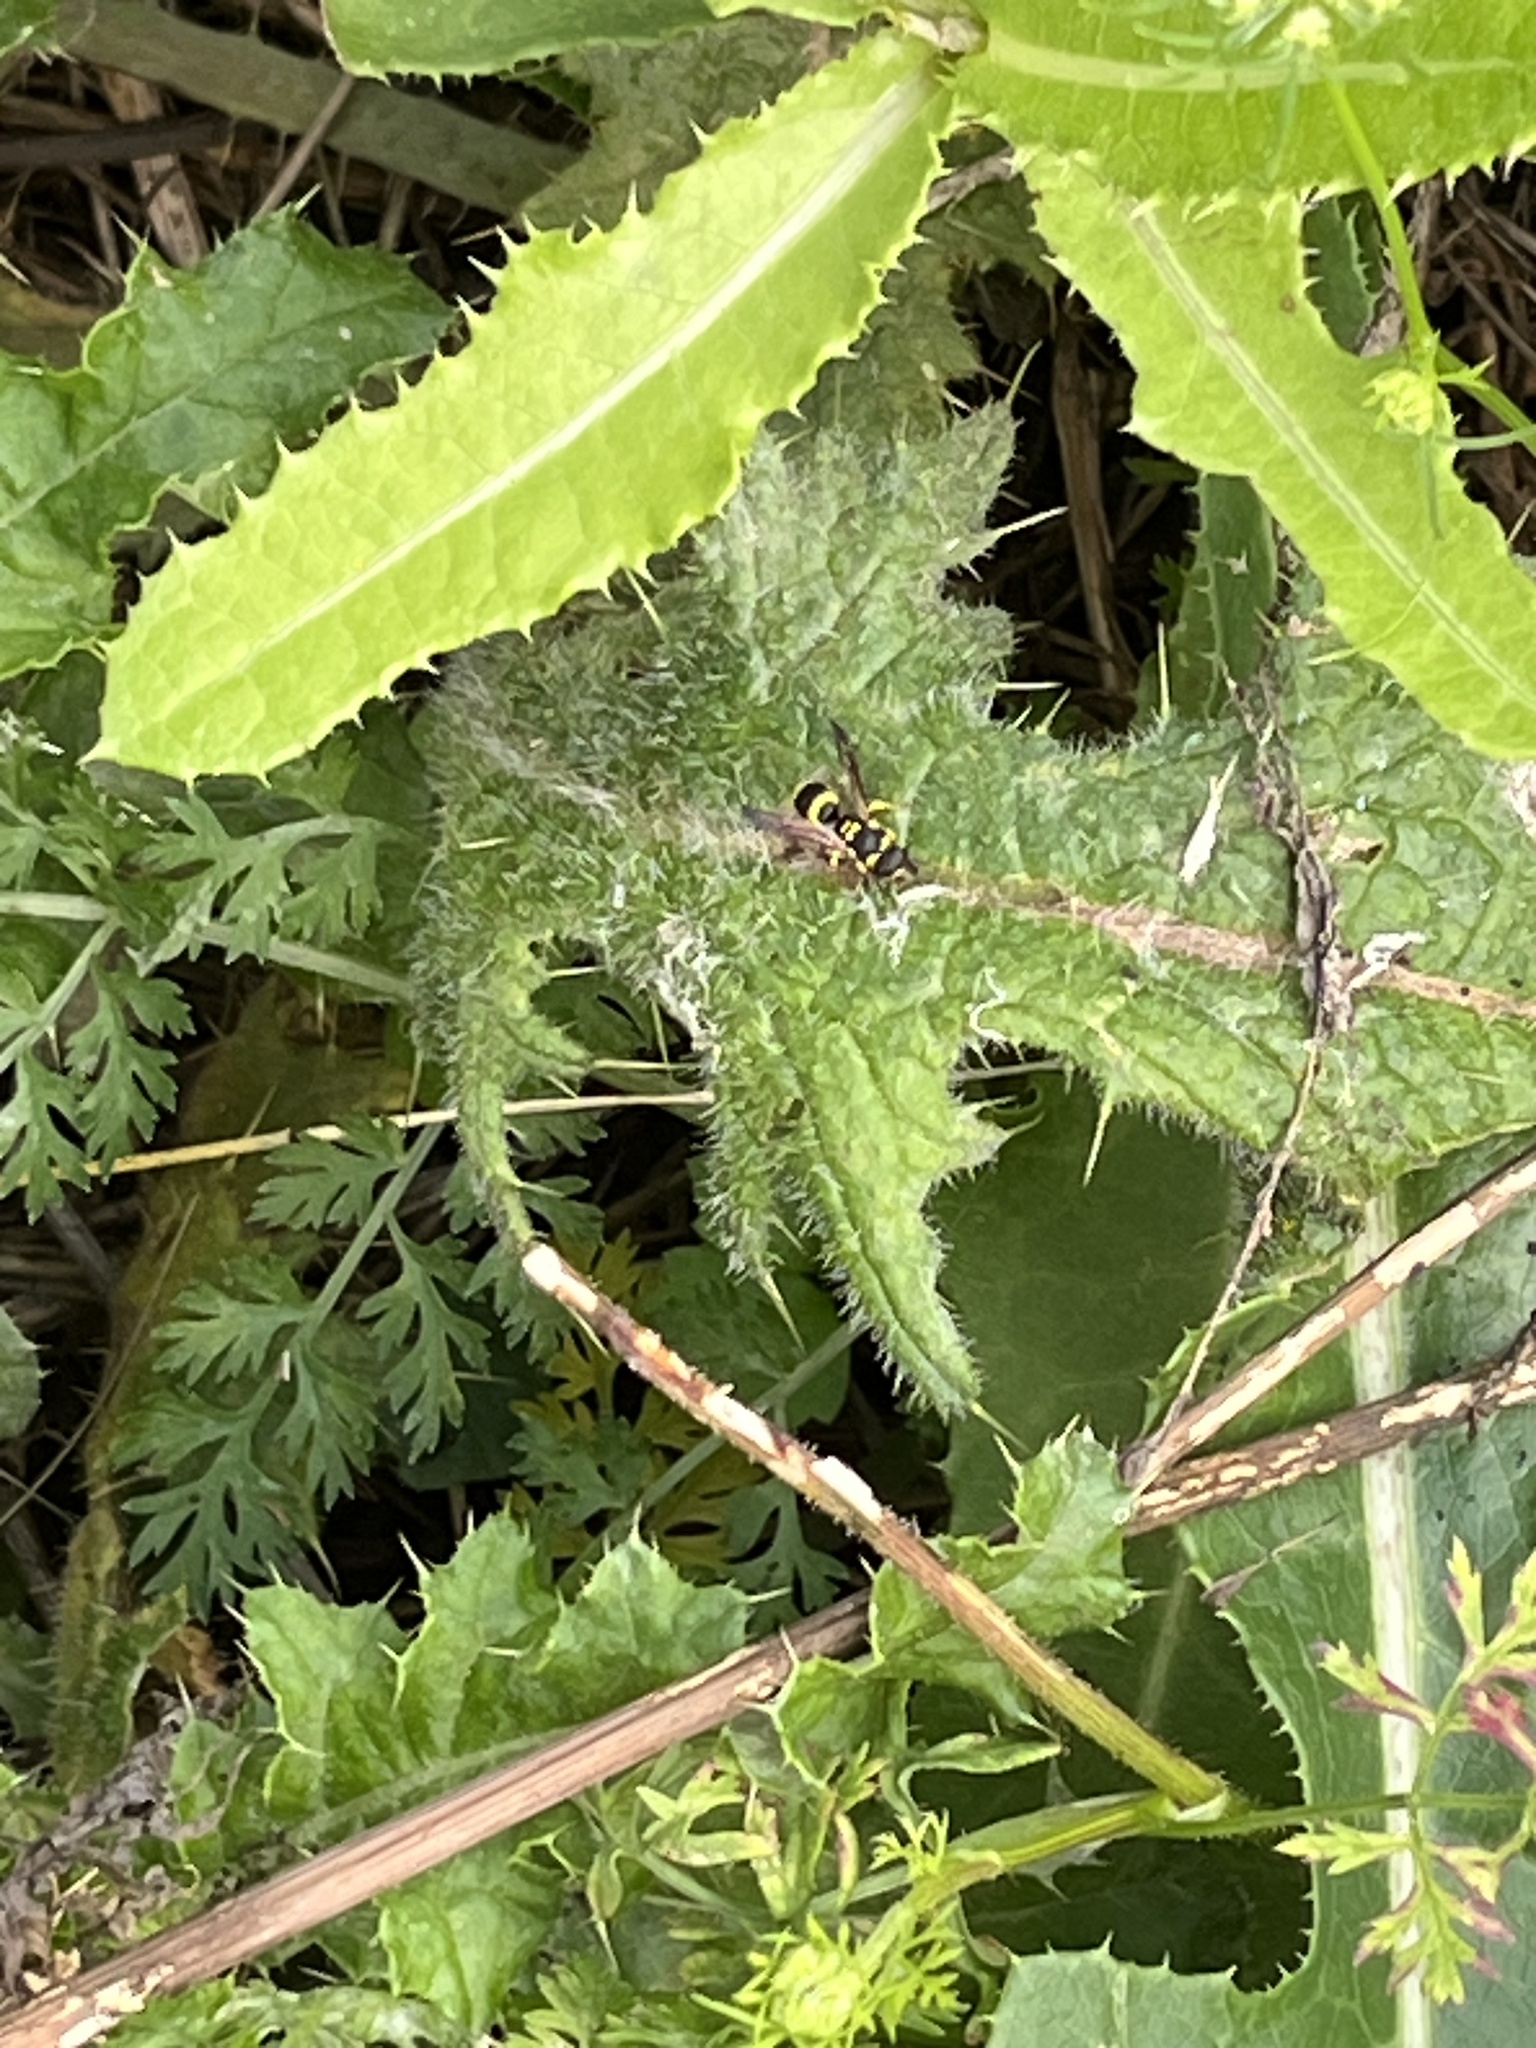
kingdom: Animalia
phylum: Arthropoda
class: Insecta
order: Hymenoptera
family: Vespidae
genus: Ancistrocerus
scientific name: Ancistrocerus gazella
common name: European tube wasp
